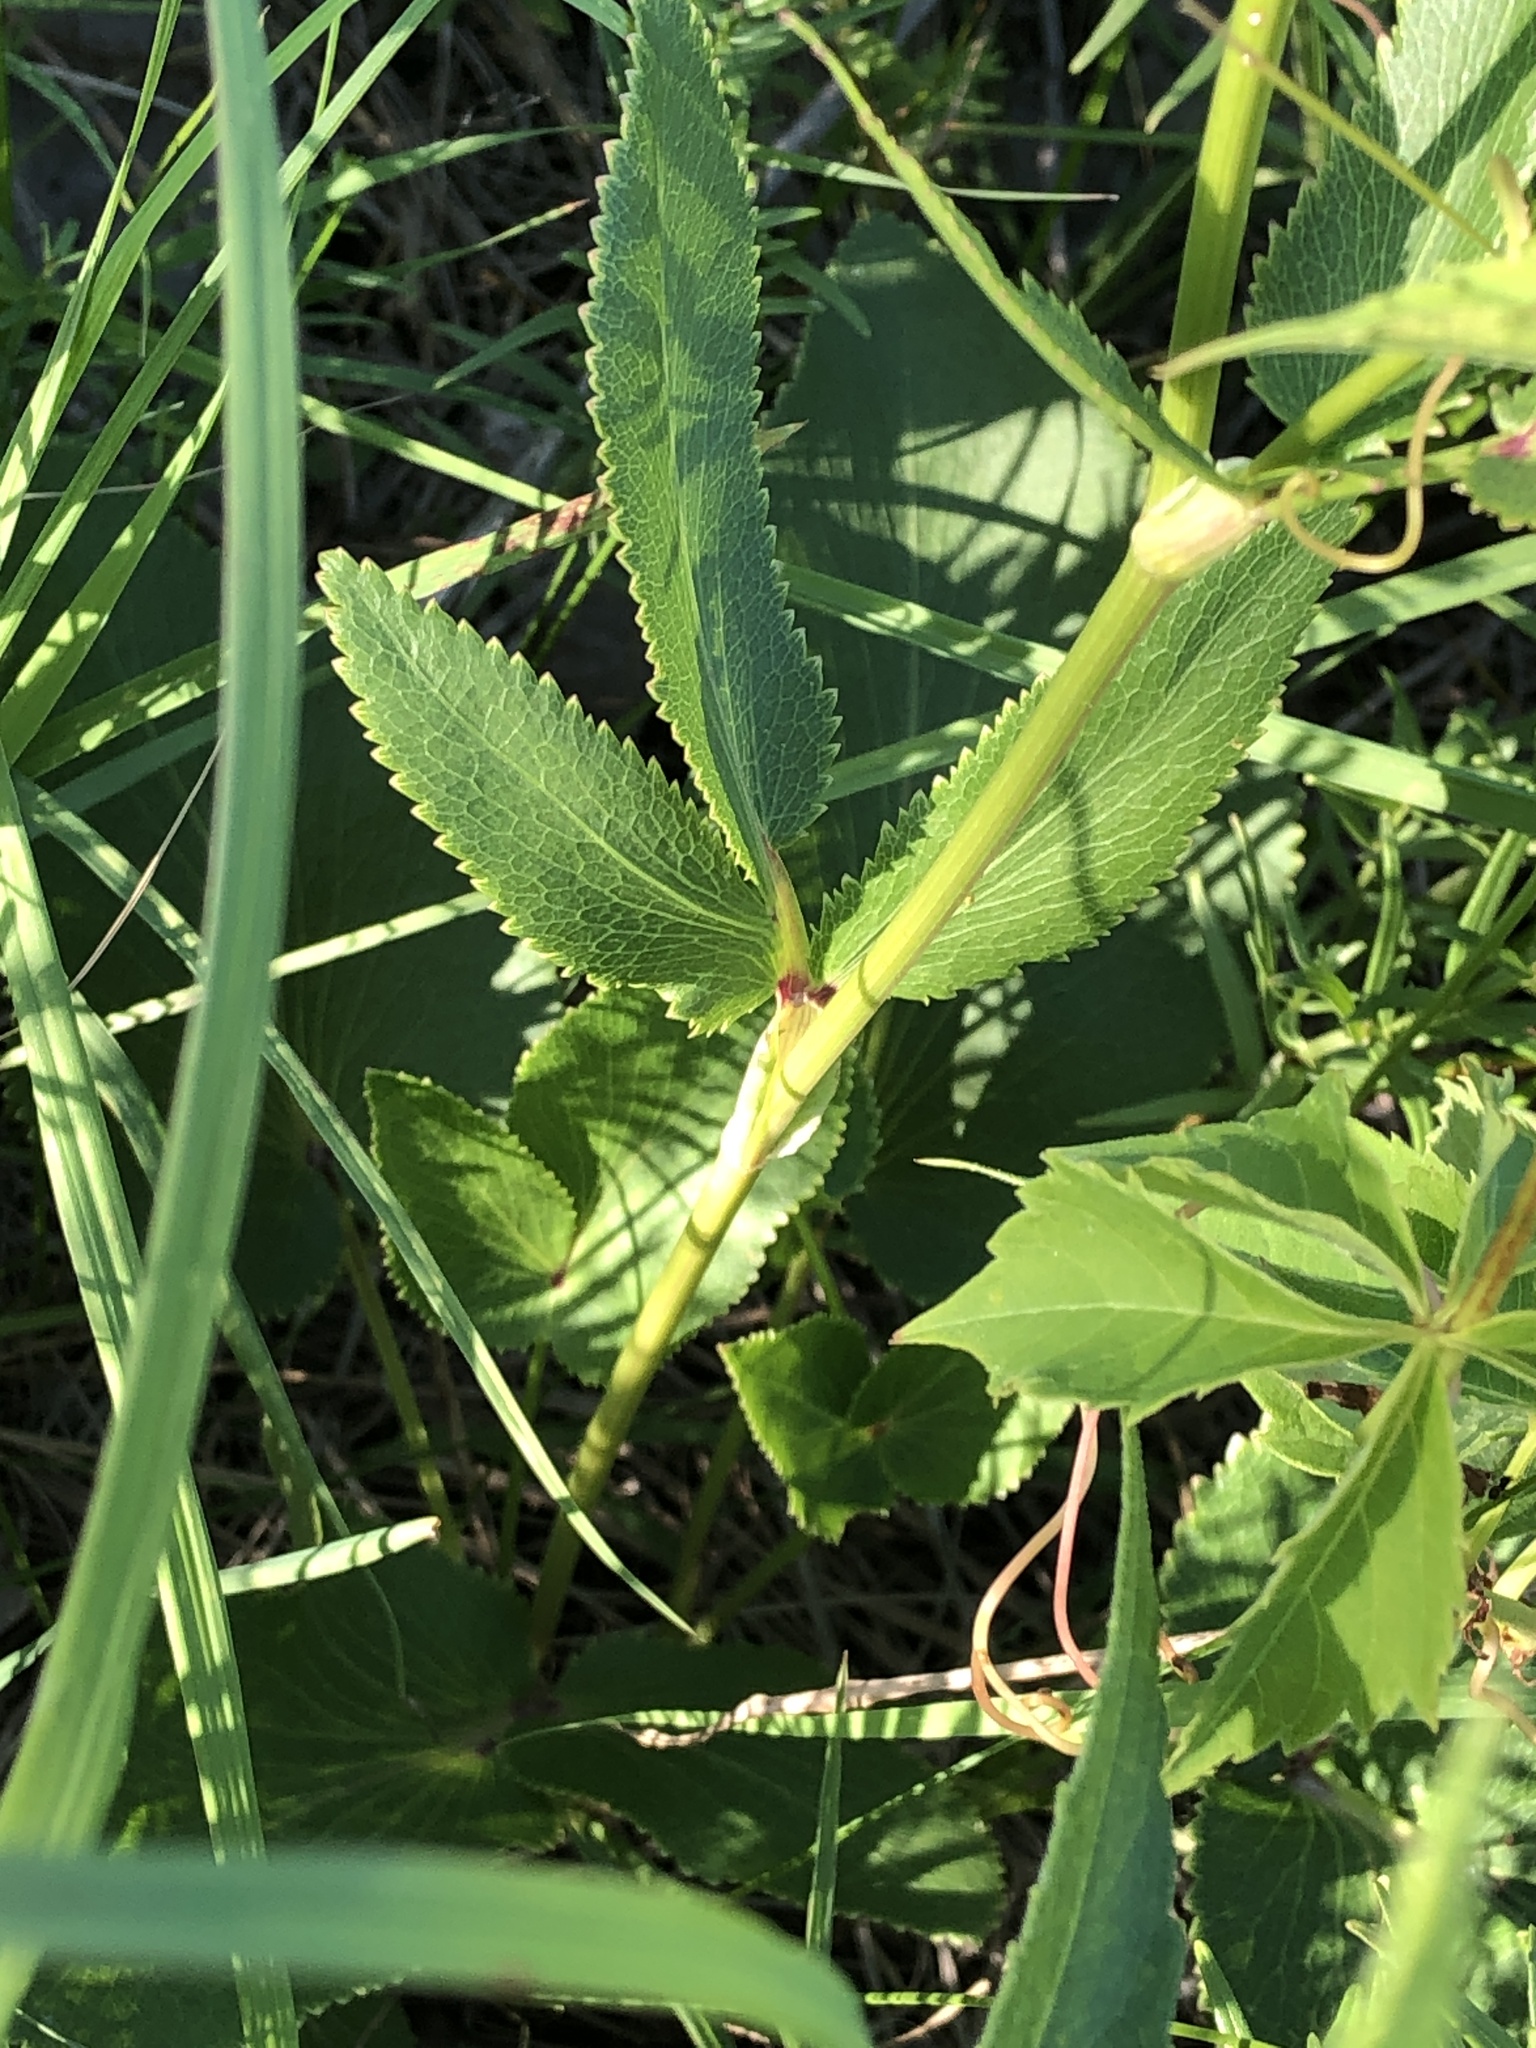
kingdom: Plantae
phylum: Tracheophyta
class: Magnoliopsida
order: Apiales
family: Apiaceae
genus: Zizia
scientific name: Zizia aptera
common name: Heart-leaved alexanders
